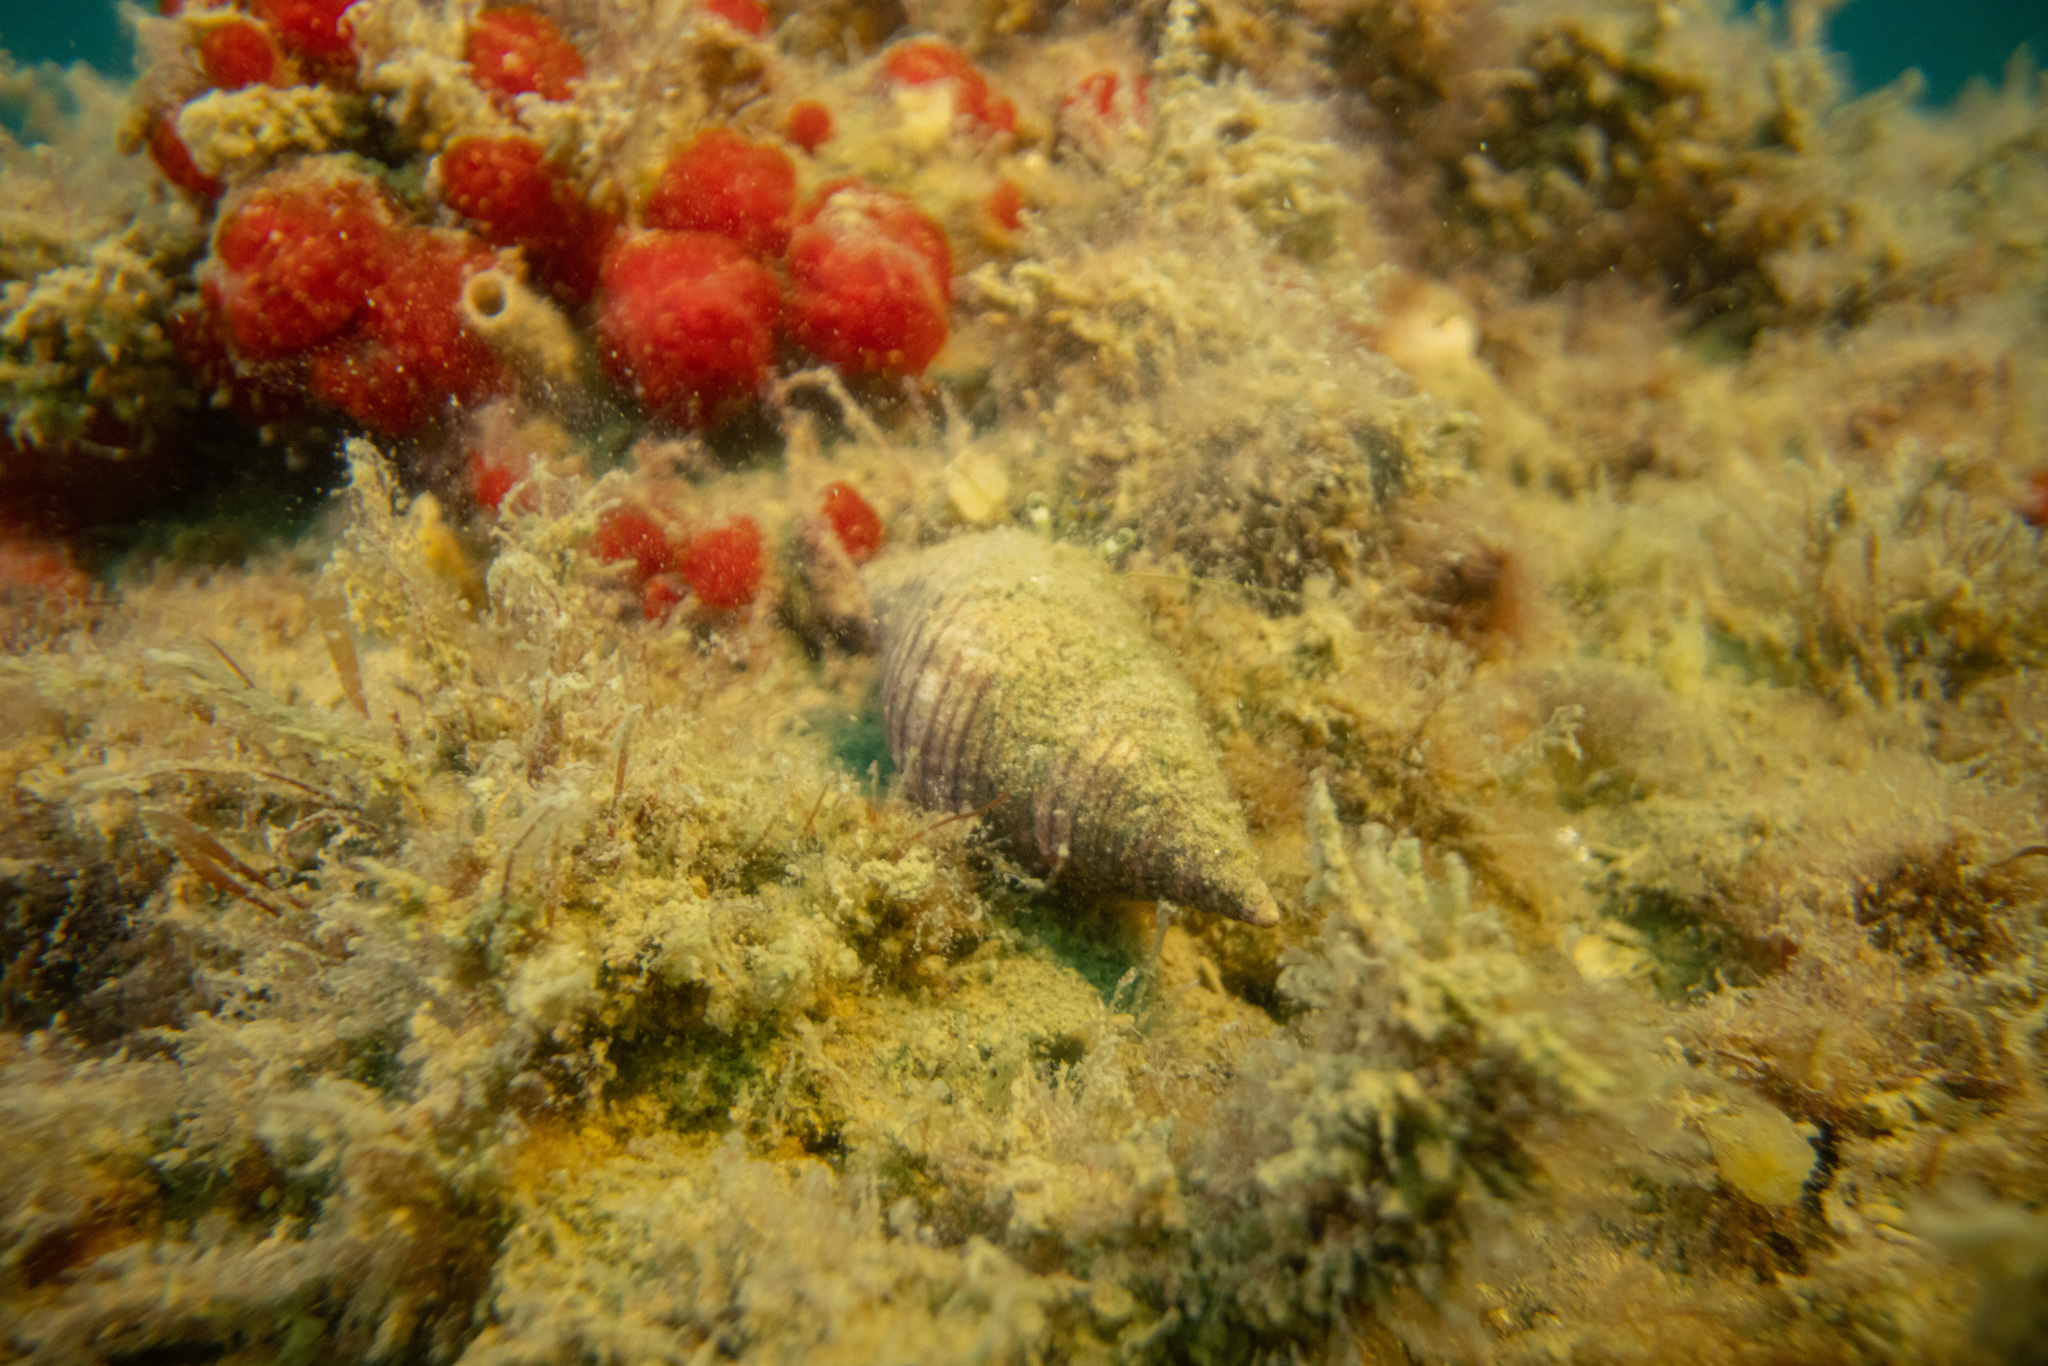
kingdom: Animalia
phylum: Mollusca
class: Gastropoda
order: Neogastropoda
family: Tudiclidae
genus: Buccinulum
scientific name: Buccinulum linea
